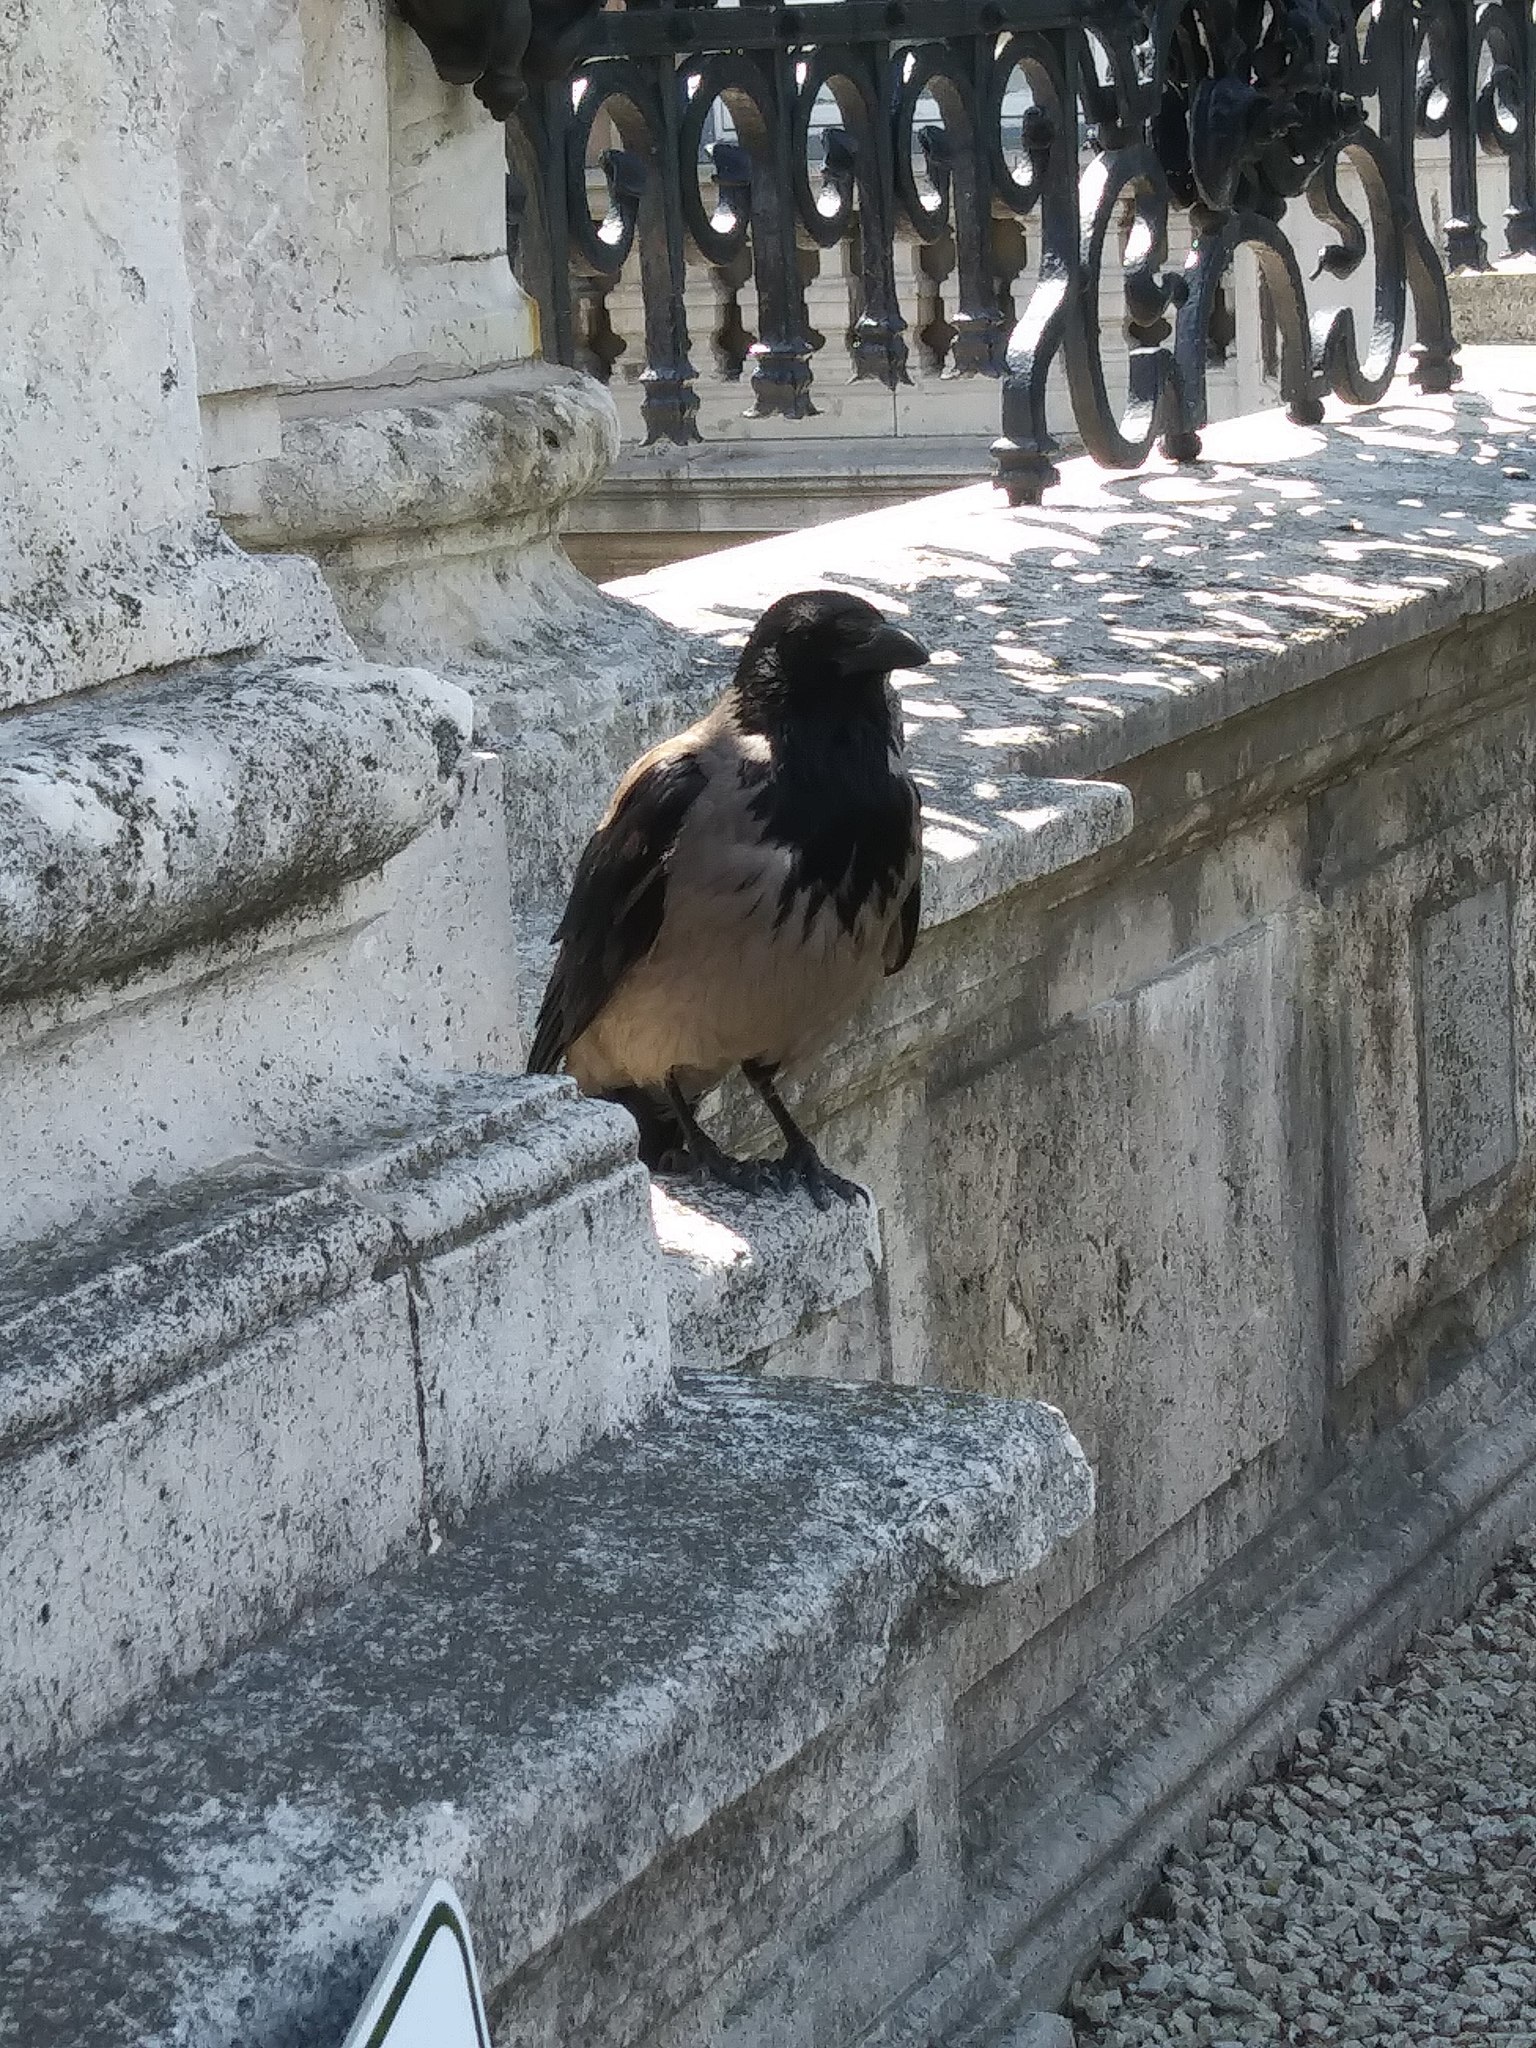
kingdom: Animalia
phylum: Chordata
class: Aves
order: Passeriformes
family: Corvidae
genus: Corvus
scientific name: Corvus cornix
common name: Hooded crow
